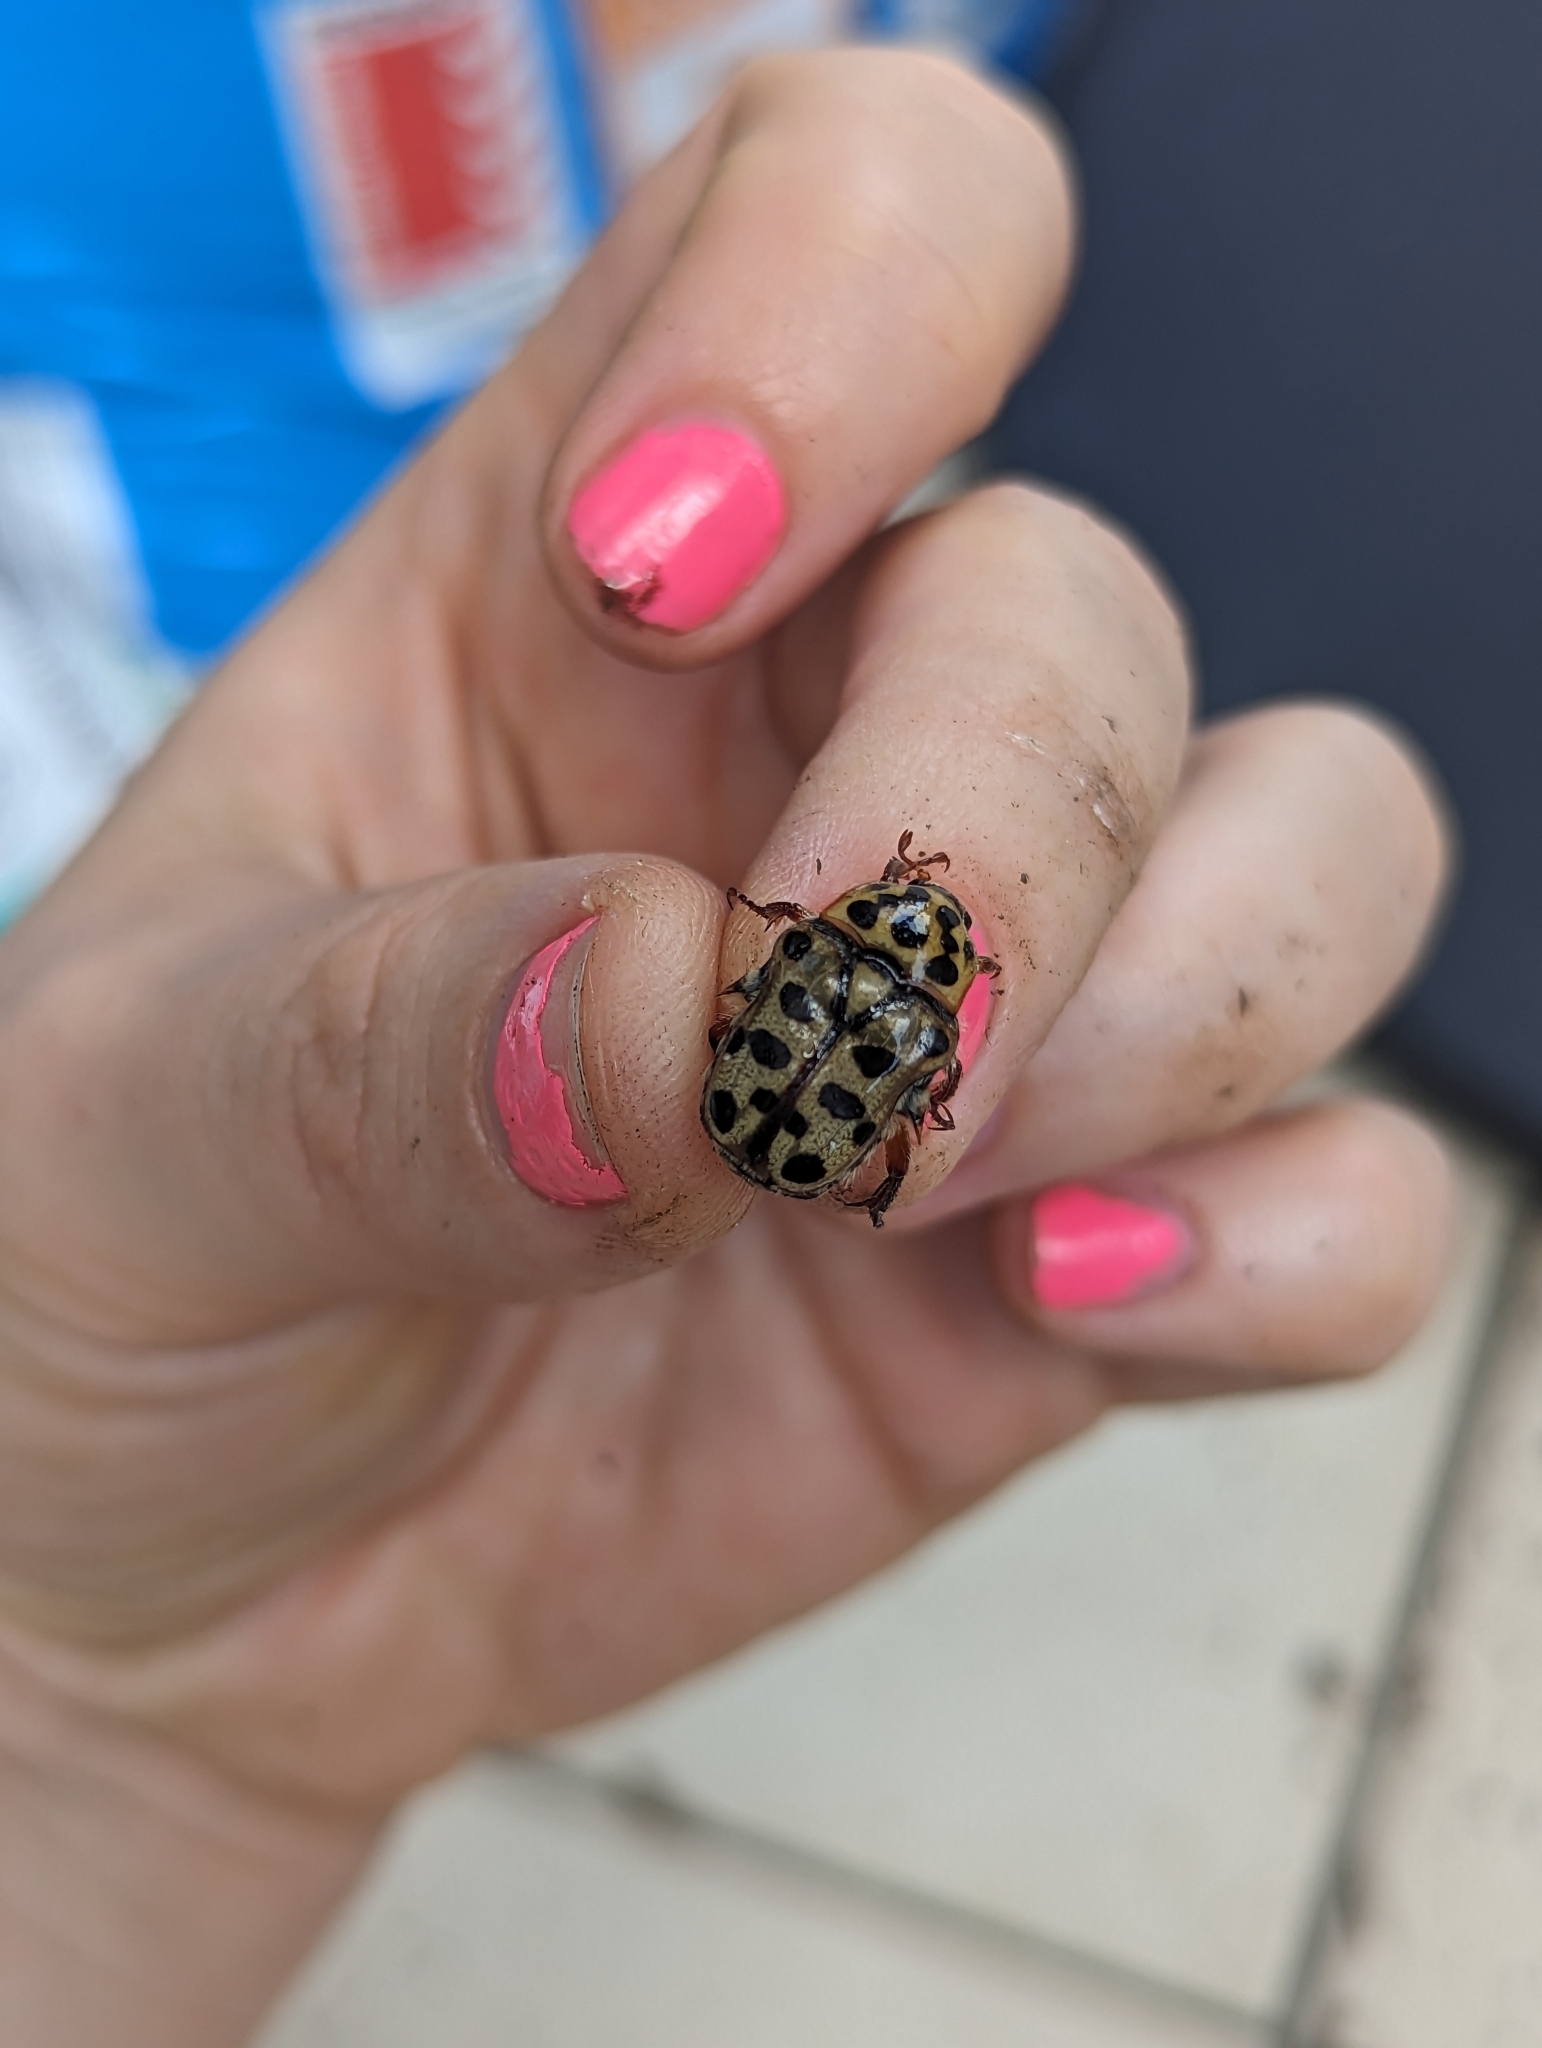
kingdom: Animalia
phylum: Arthropoda
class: Insecta
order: Coleoptera
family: Scarabaeidae
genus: Neorrhina
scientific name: Neorrhina punctatum
